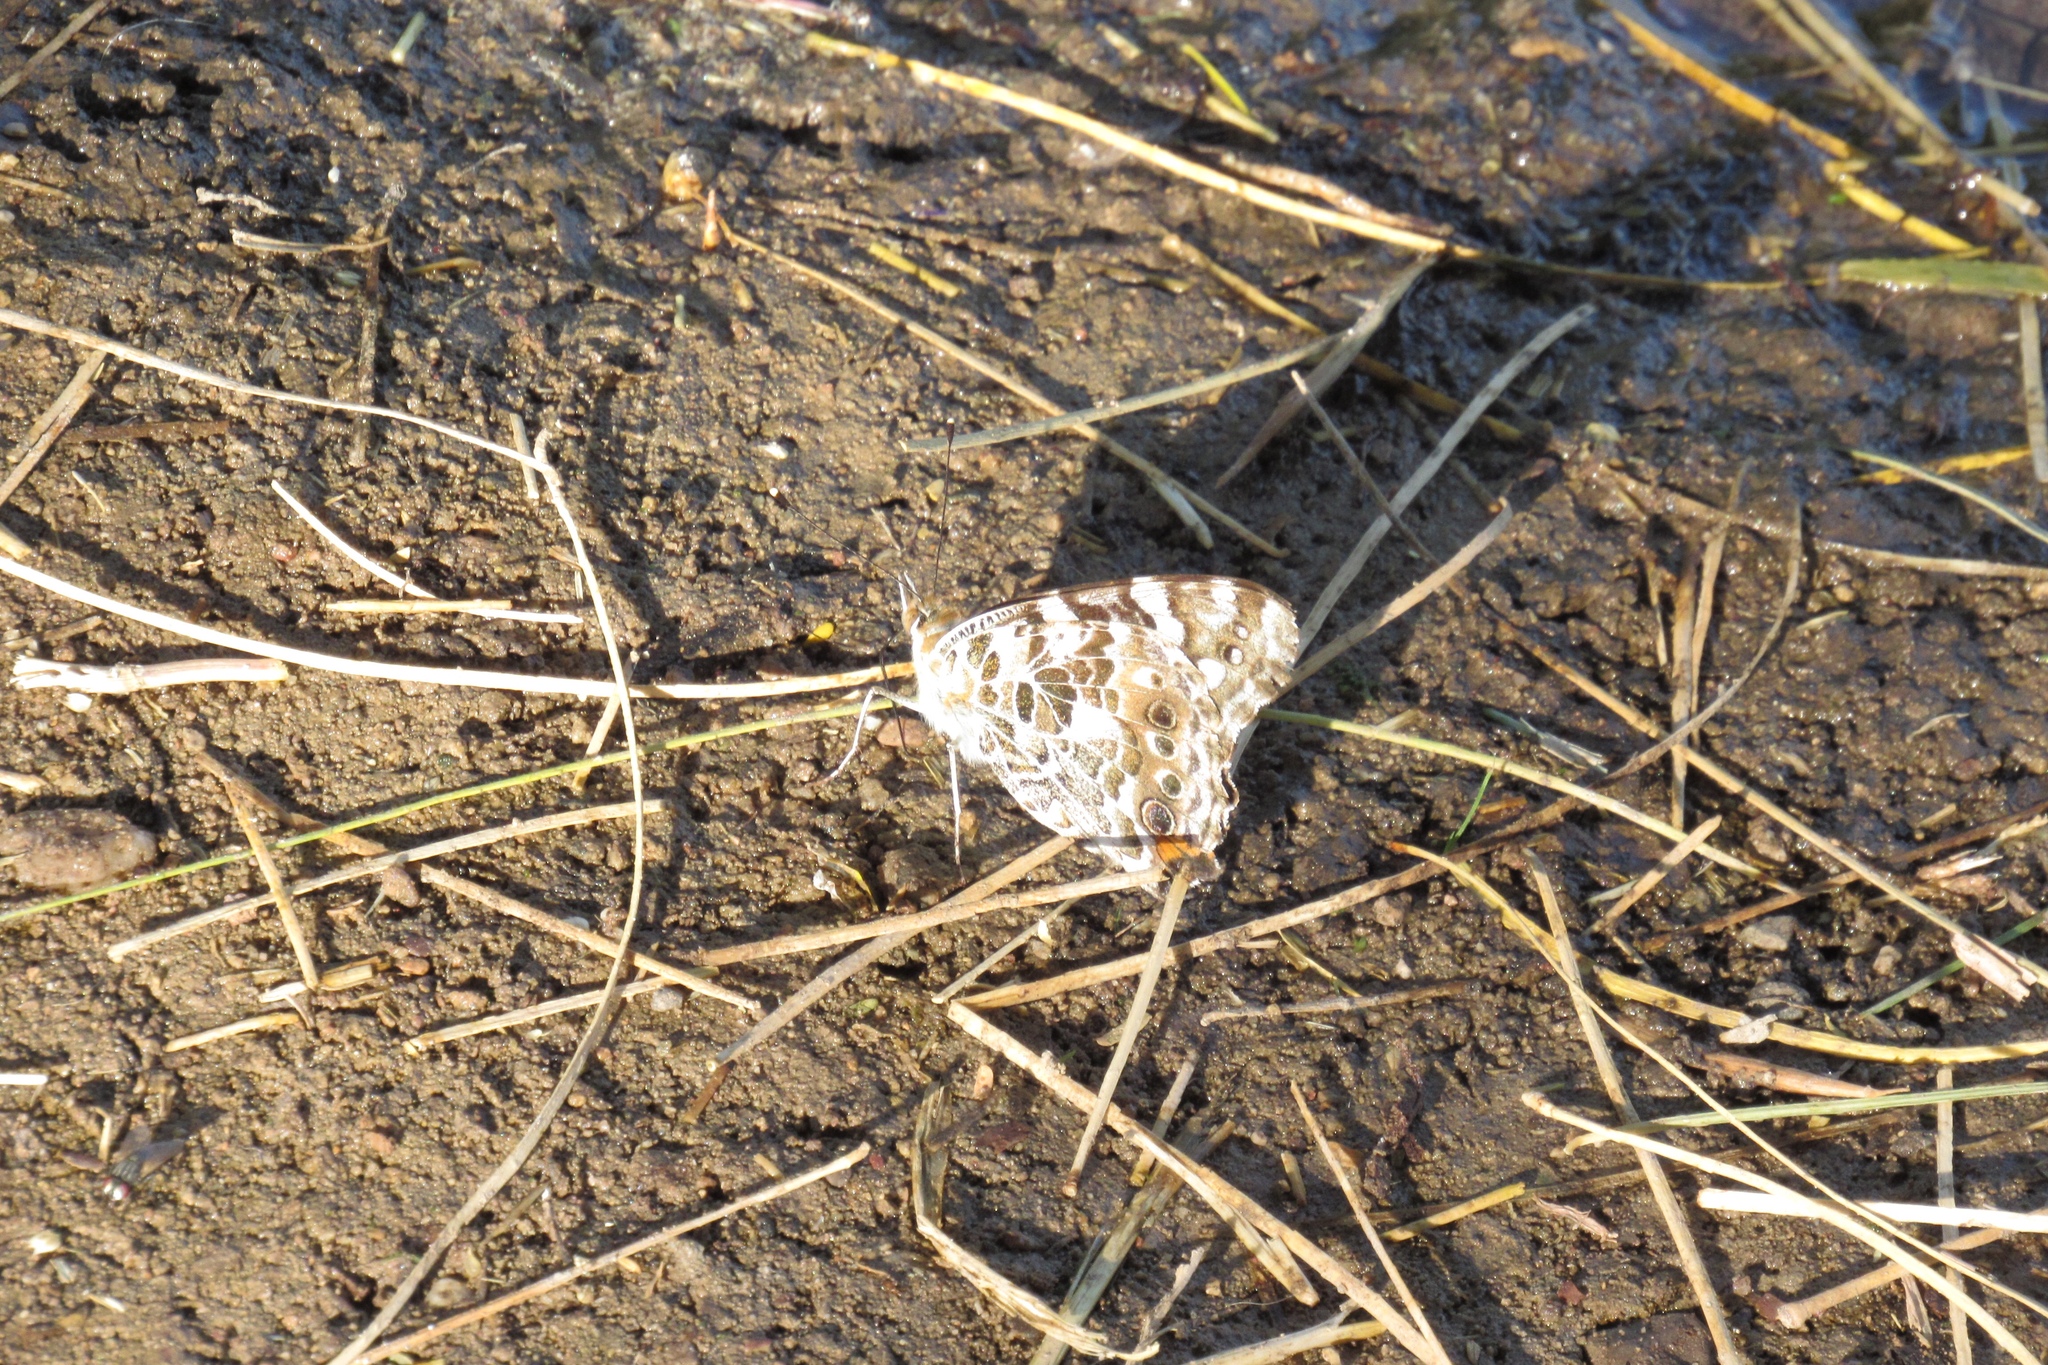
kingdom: Animalia
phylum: Arthropoda
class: Insecta
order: Lepidoptera
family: Nymphalidae
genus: Vanessa
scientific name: Vanessa cardui
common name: Painted lady
